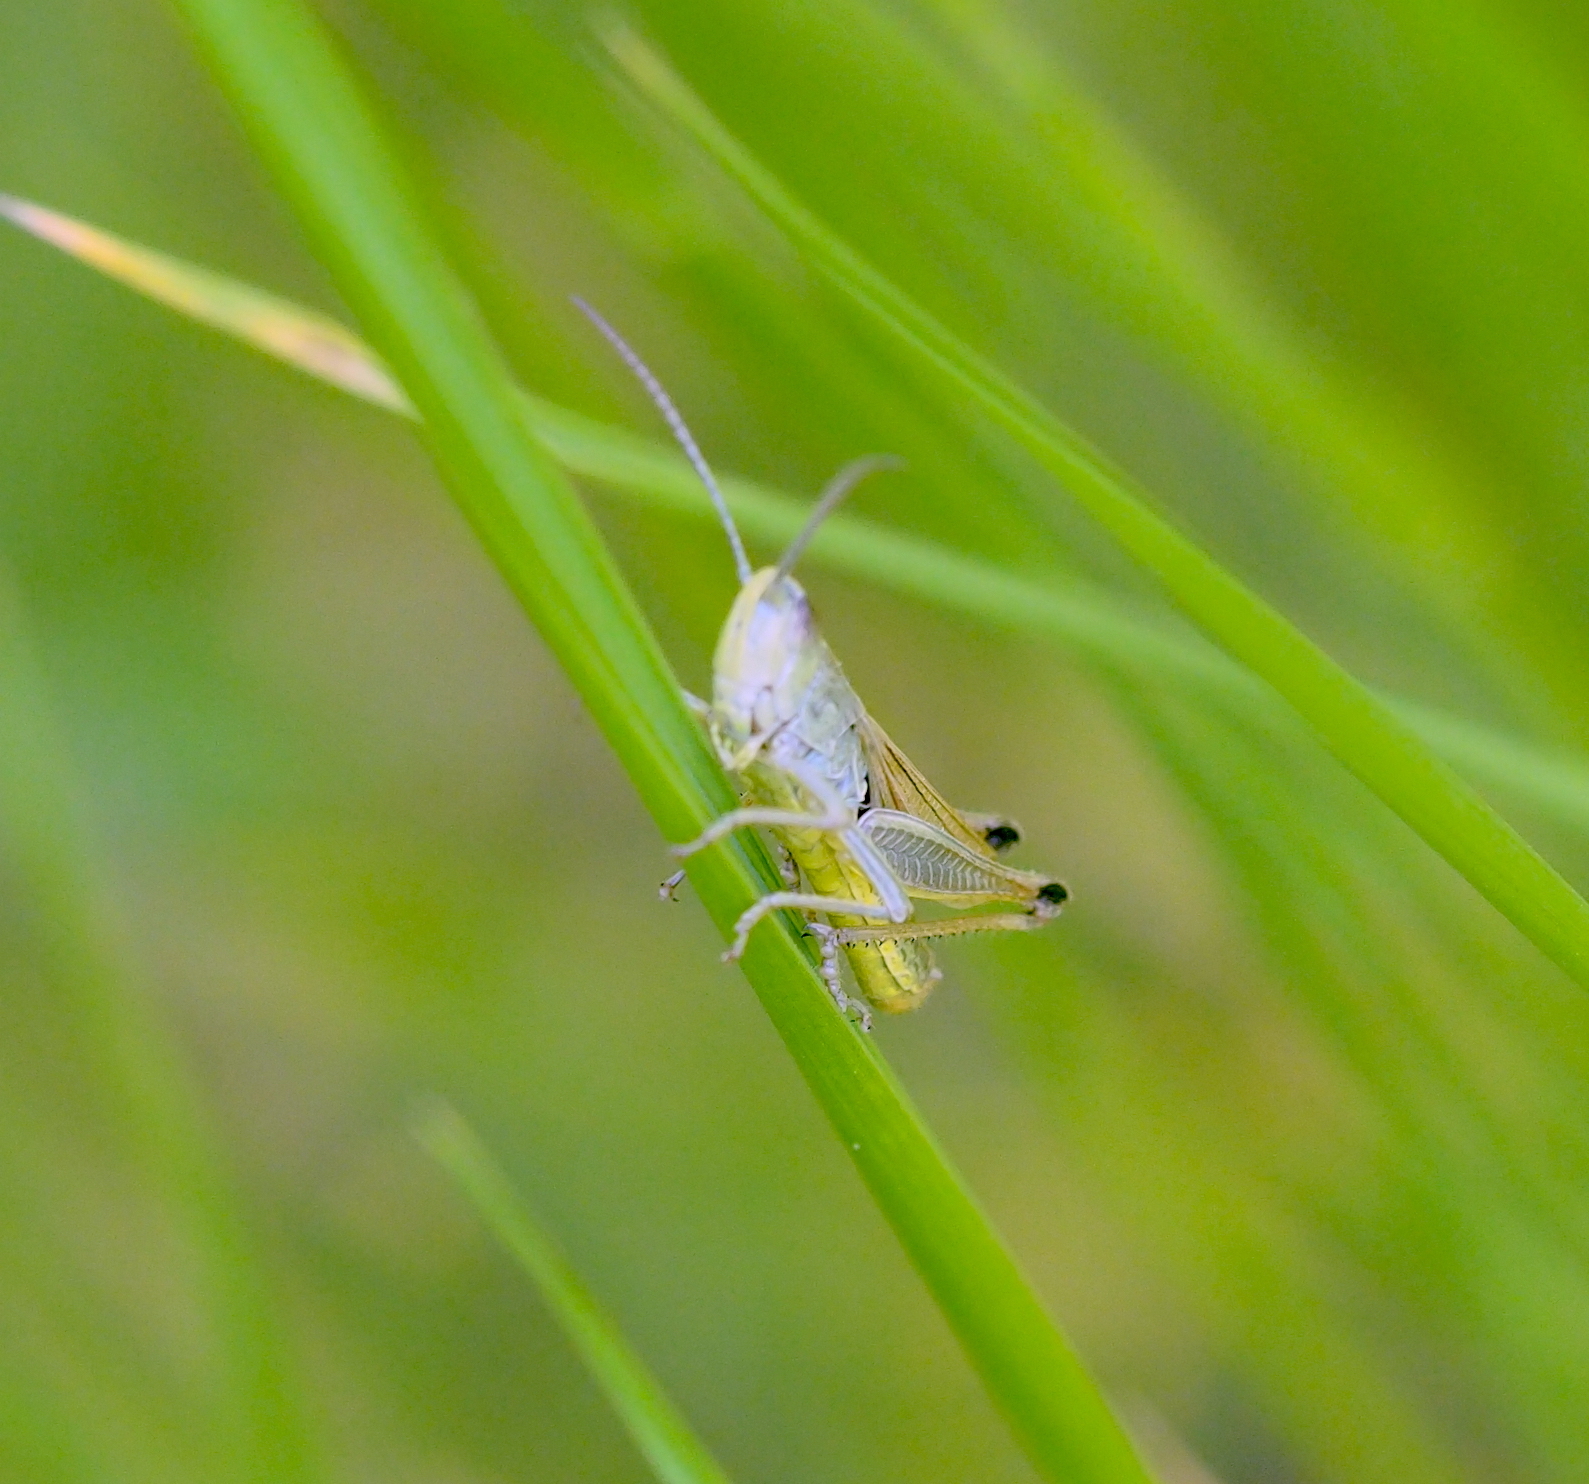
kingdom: Animalia
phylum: Arthropoda
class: Insecta
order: Orthoptera
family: Acrididae
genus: Pseudochorthippus
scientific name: Pseudochorthippus parallelus
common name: Meadow grasshopper
